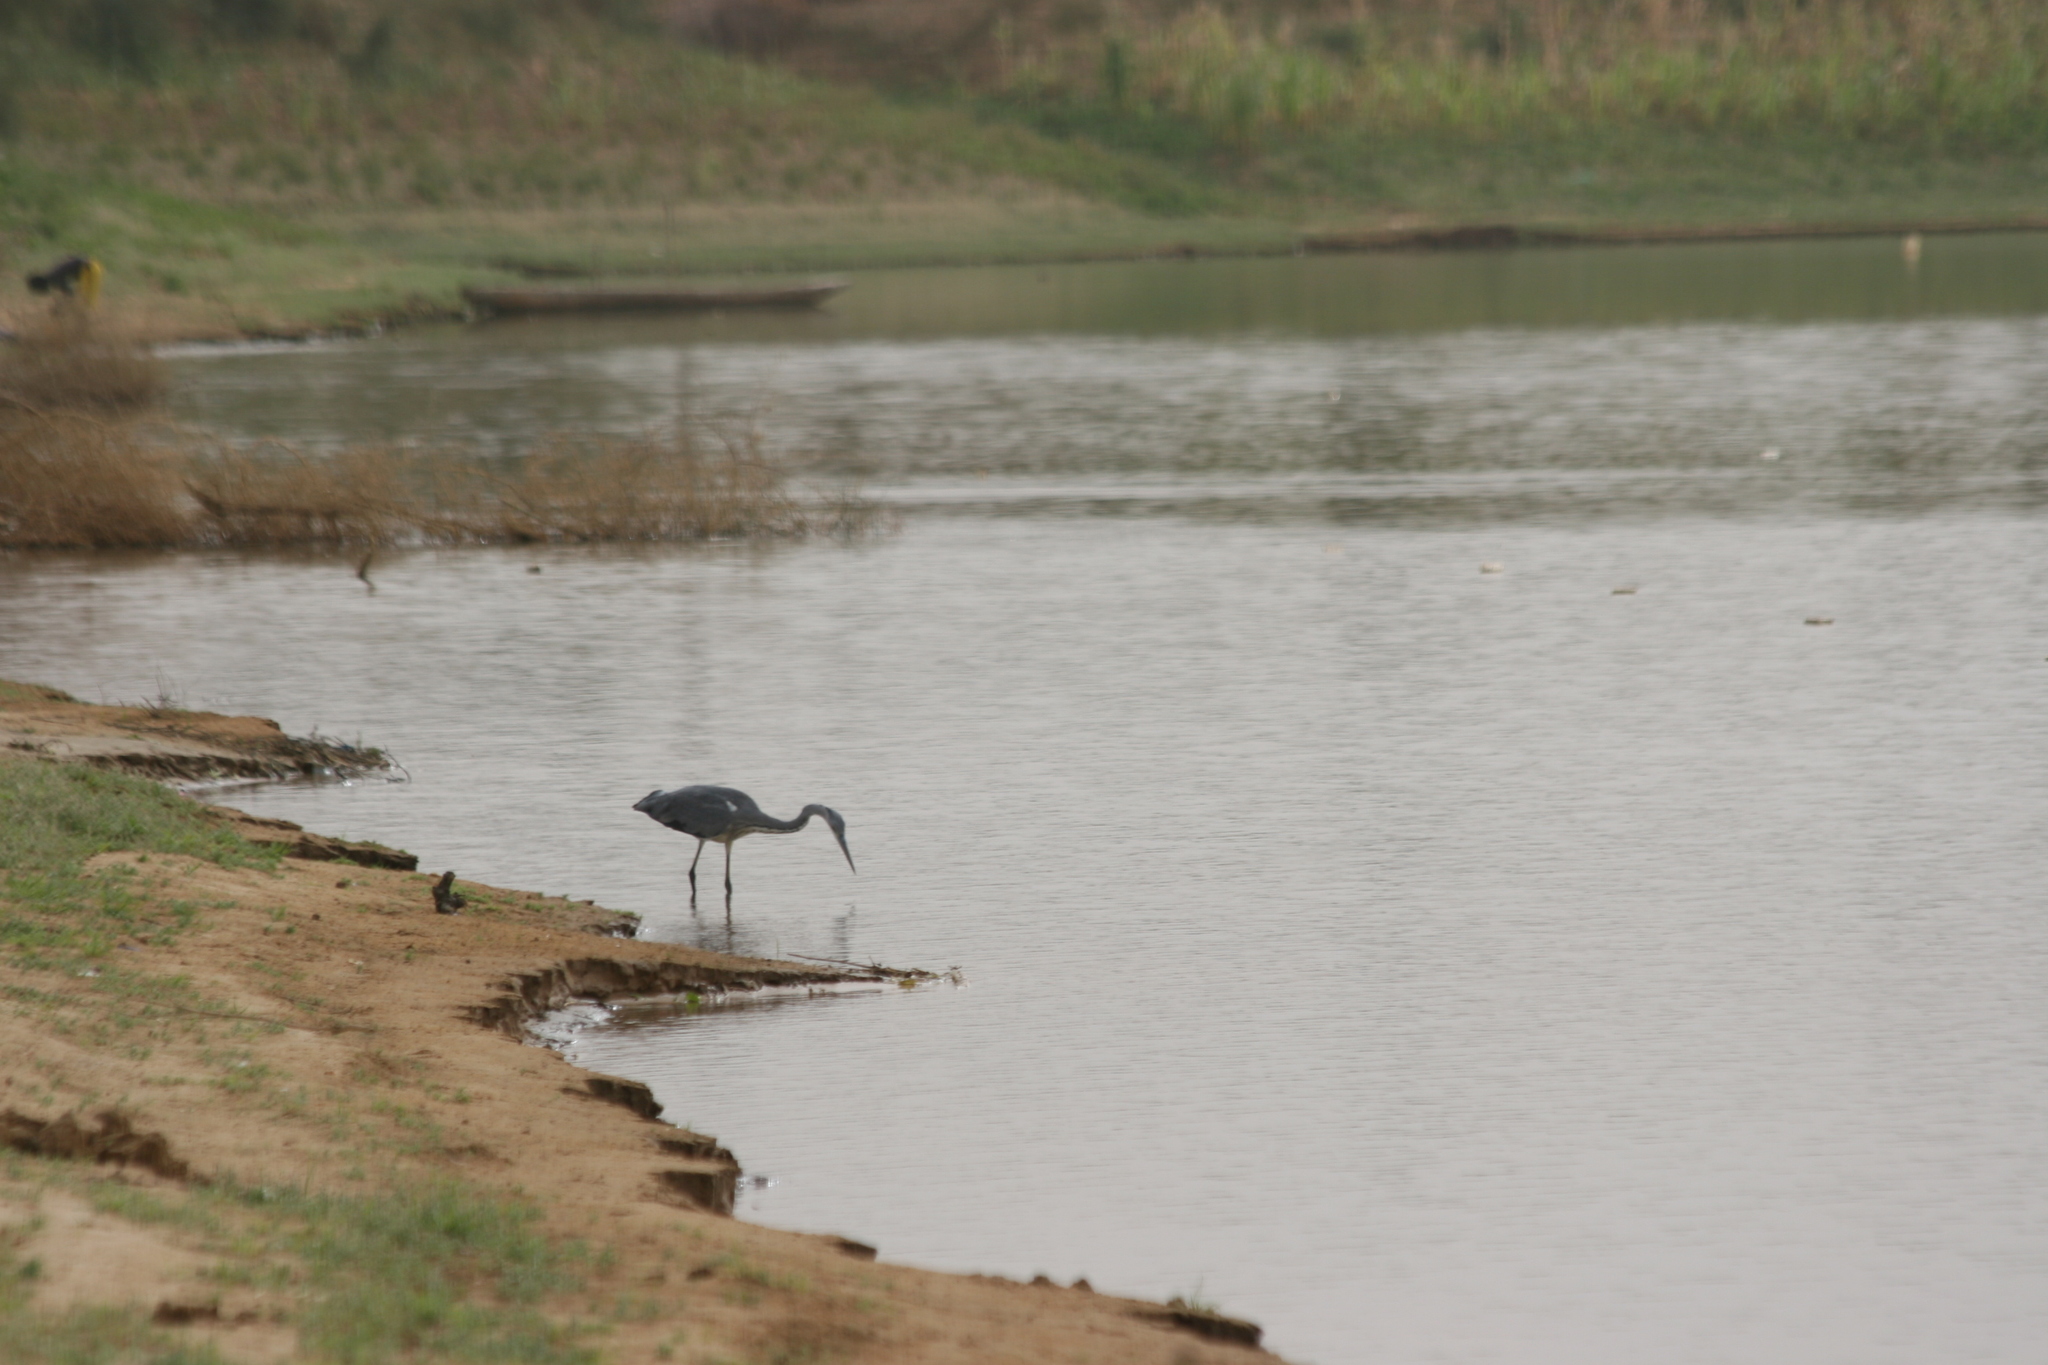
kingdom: Animalia
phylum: Chordata
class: Aves
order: Pelecaniformes
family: Ardeidae
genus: Ardea
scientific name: Ardea cinerea
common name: Grey heron
